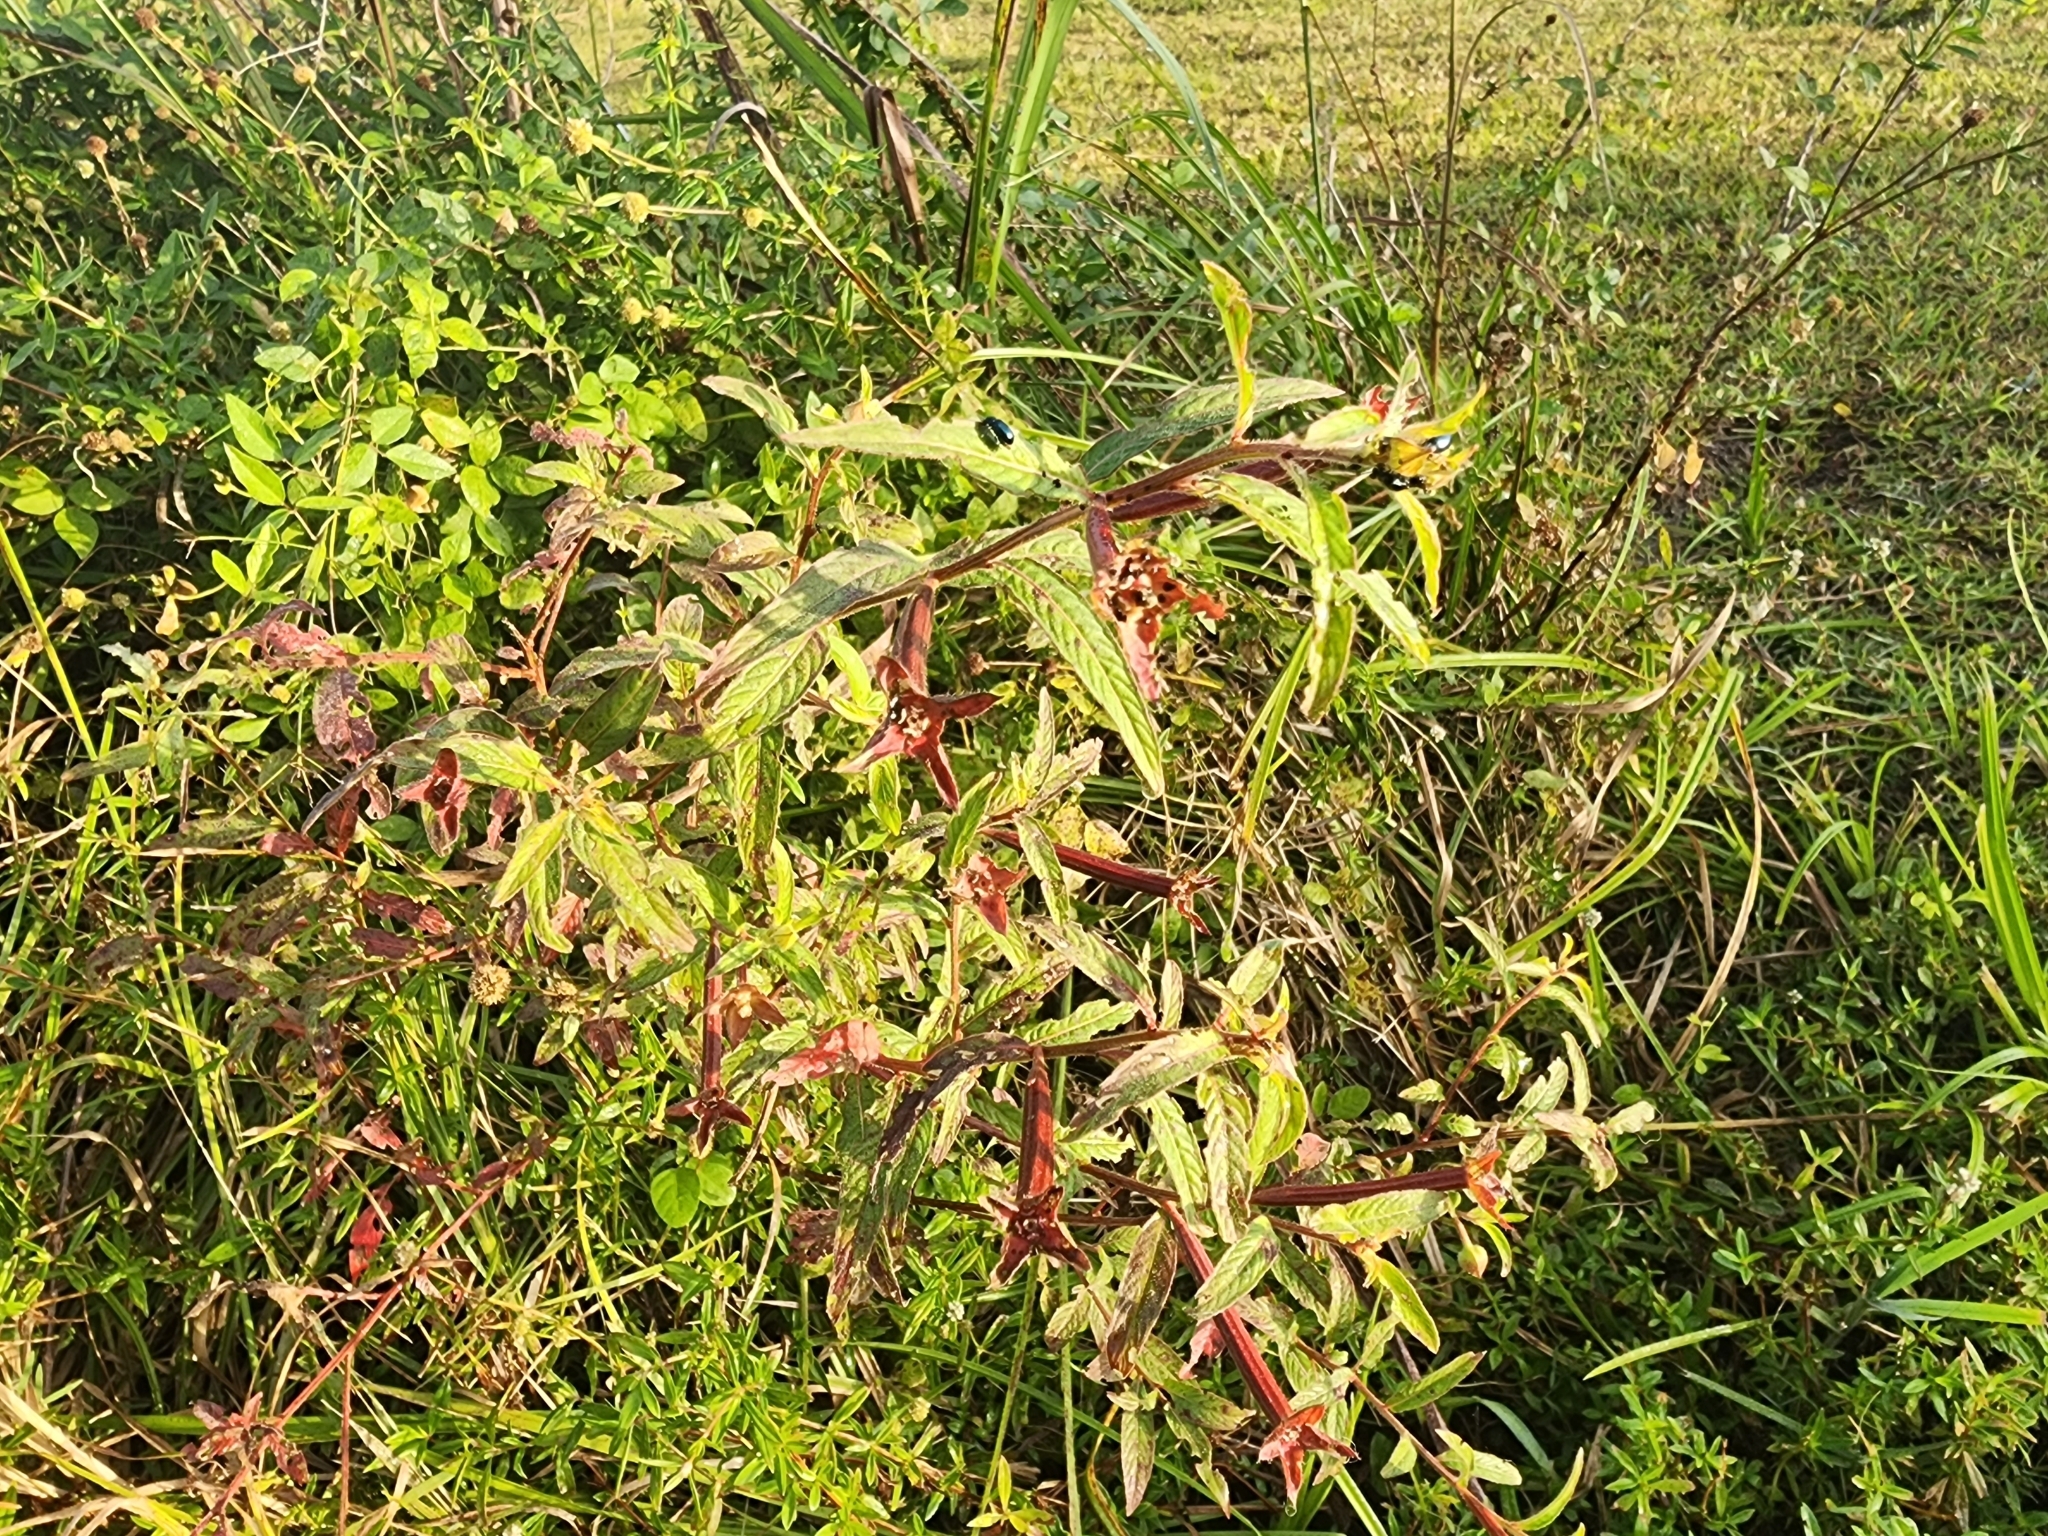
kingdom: Plantae
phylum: Tracheophyta
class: Magnoliopsida
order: Myrtales
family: Onagraceae
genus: Ludwigia
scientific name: Ludwigia octovalvis
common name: Water-primrose
